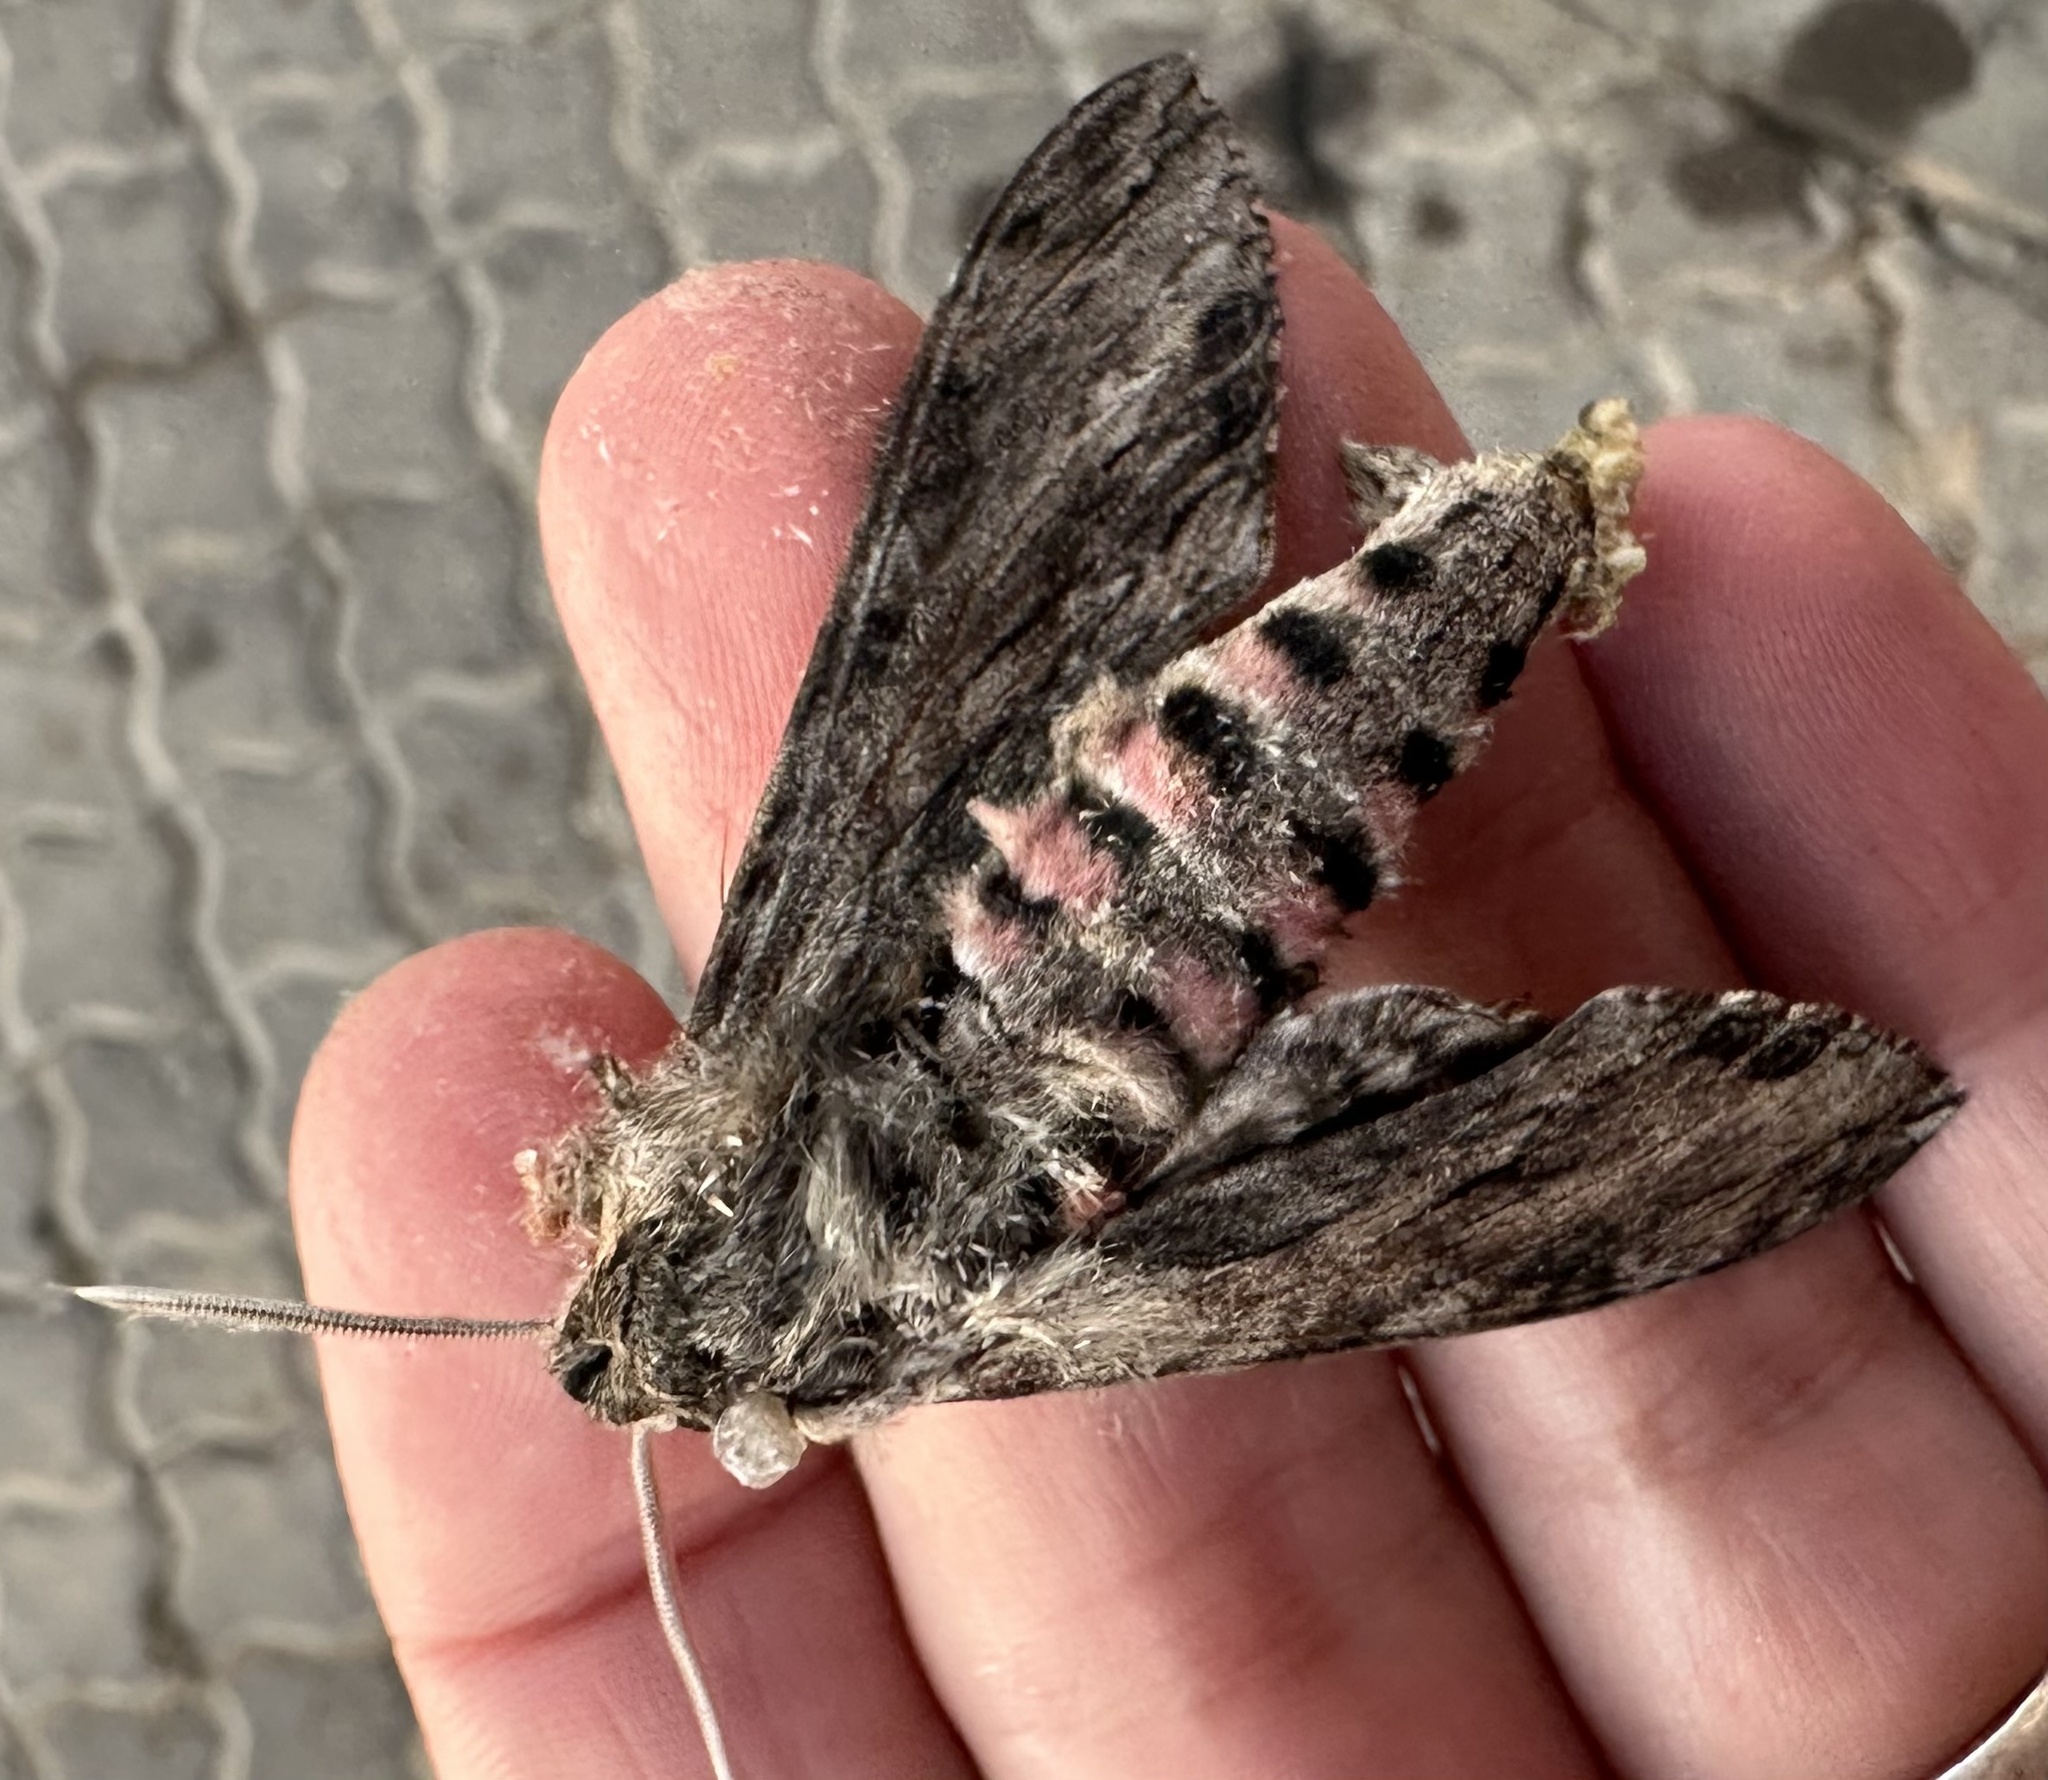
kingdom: Animalia
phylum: Arthropoda
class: Insecta
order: Lepidoptera
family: Sphingidae
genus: Agrius
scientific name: Agrius convolvuli
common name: Convolvulus hawkmoth
